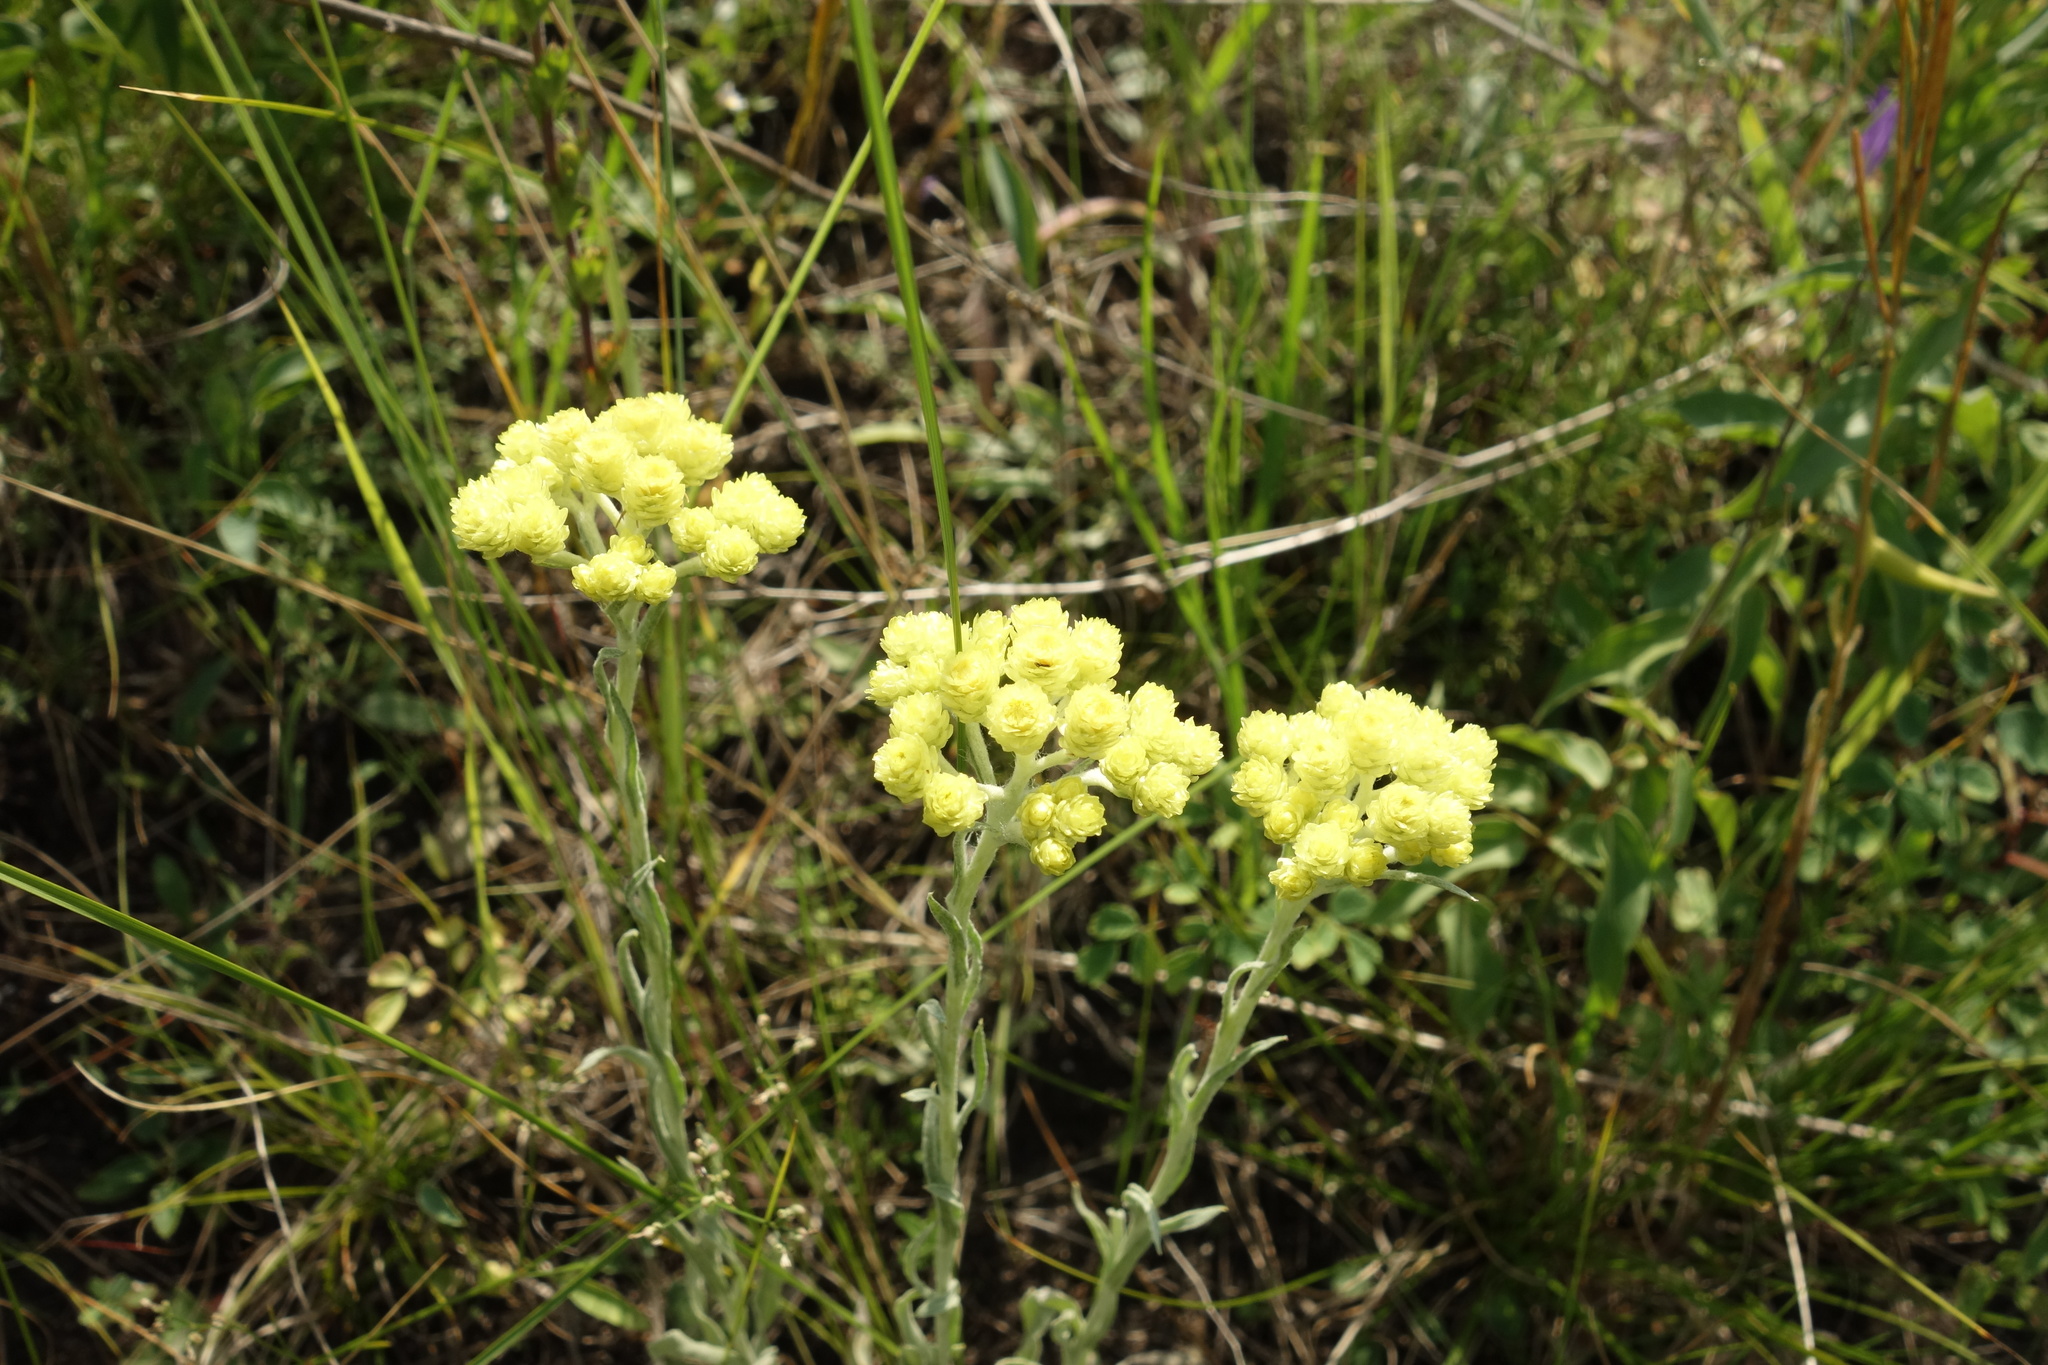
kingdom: Plantae
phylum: Tracheophyta
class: Magnoliopsida
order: Asterales
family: Asteraceae
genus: Helichrysum
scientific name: Helichrysum arenarium
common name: Strawflower
